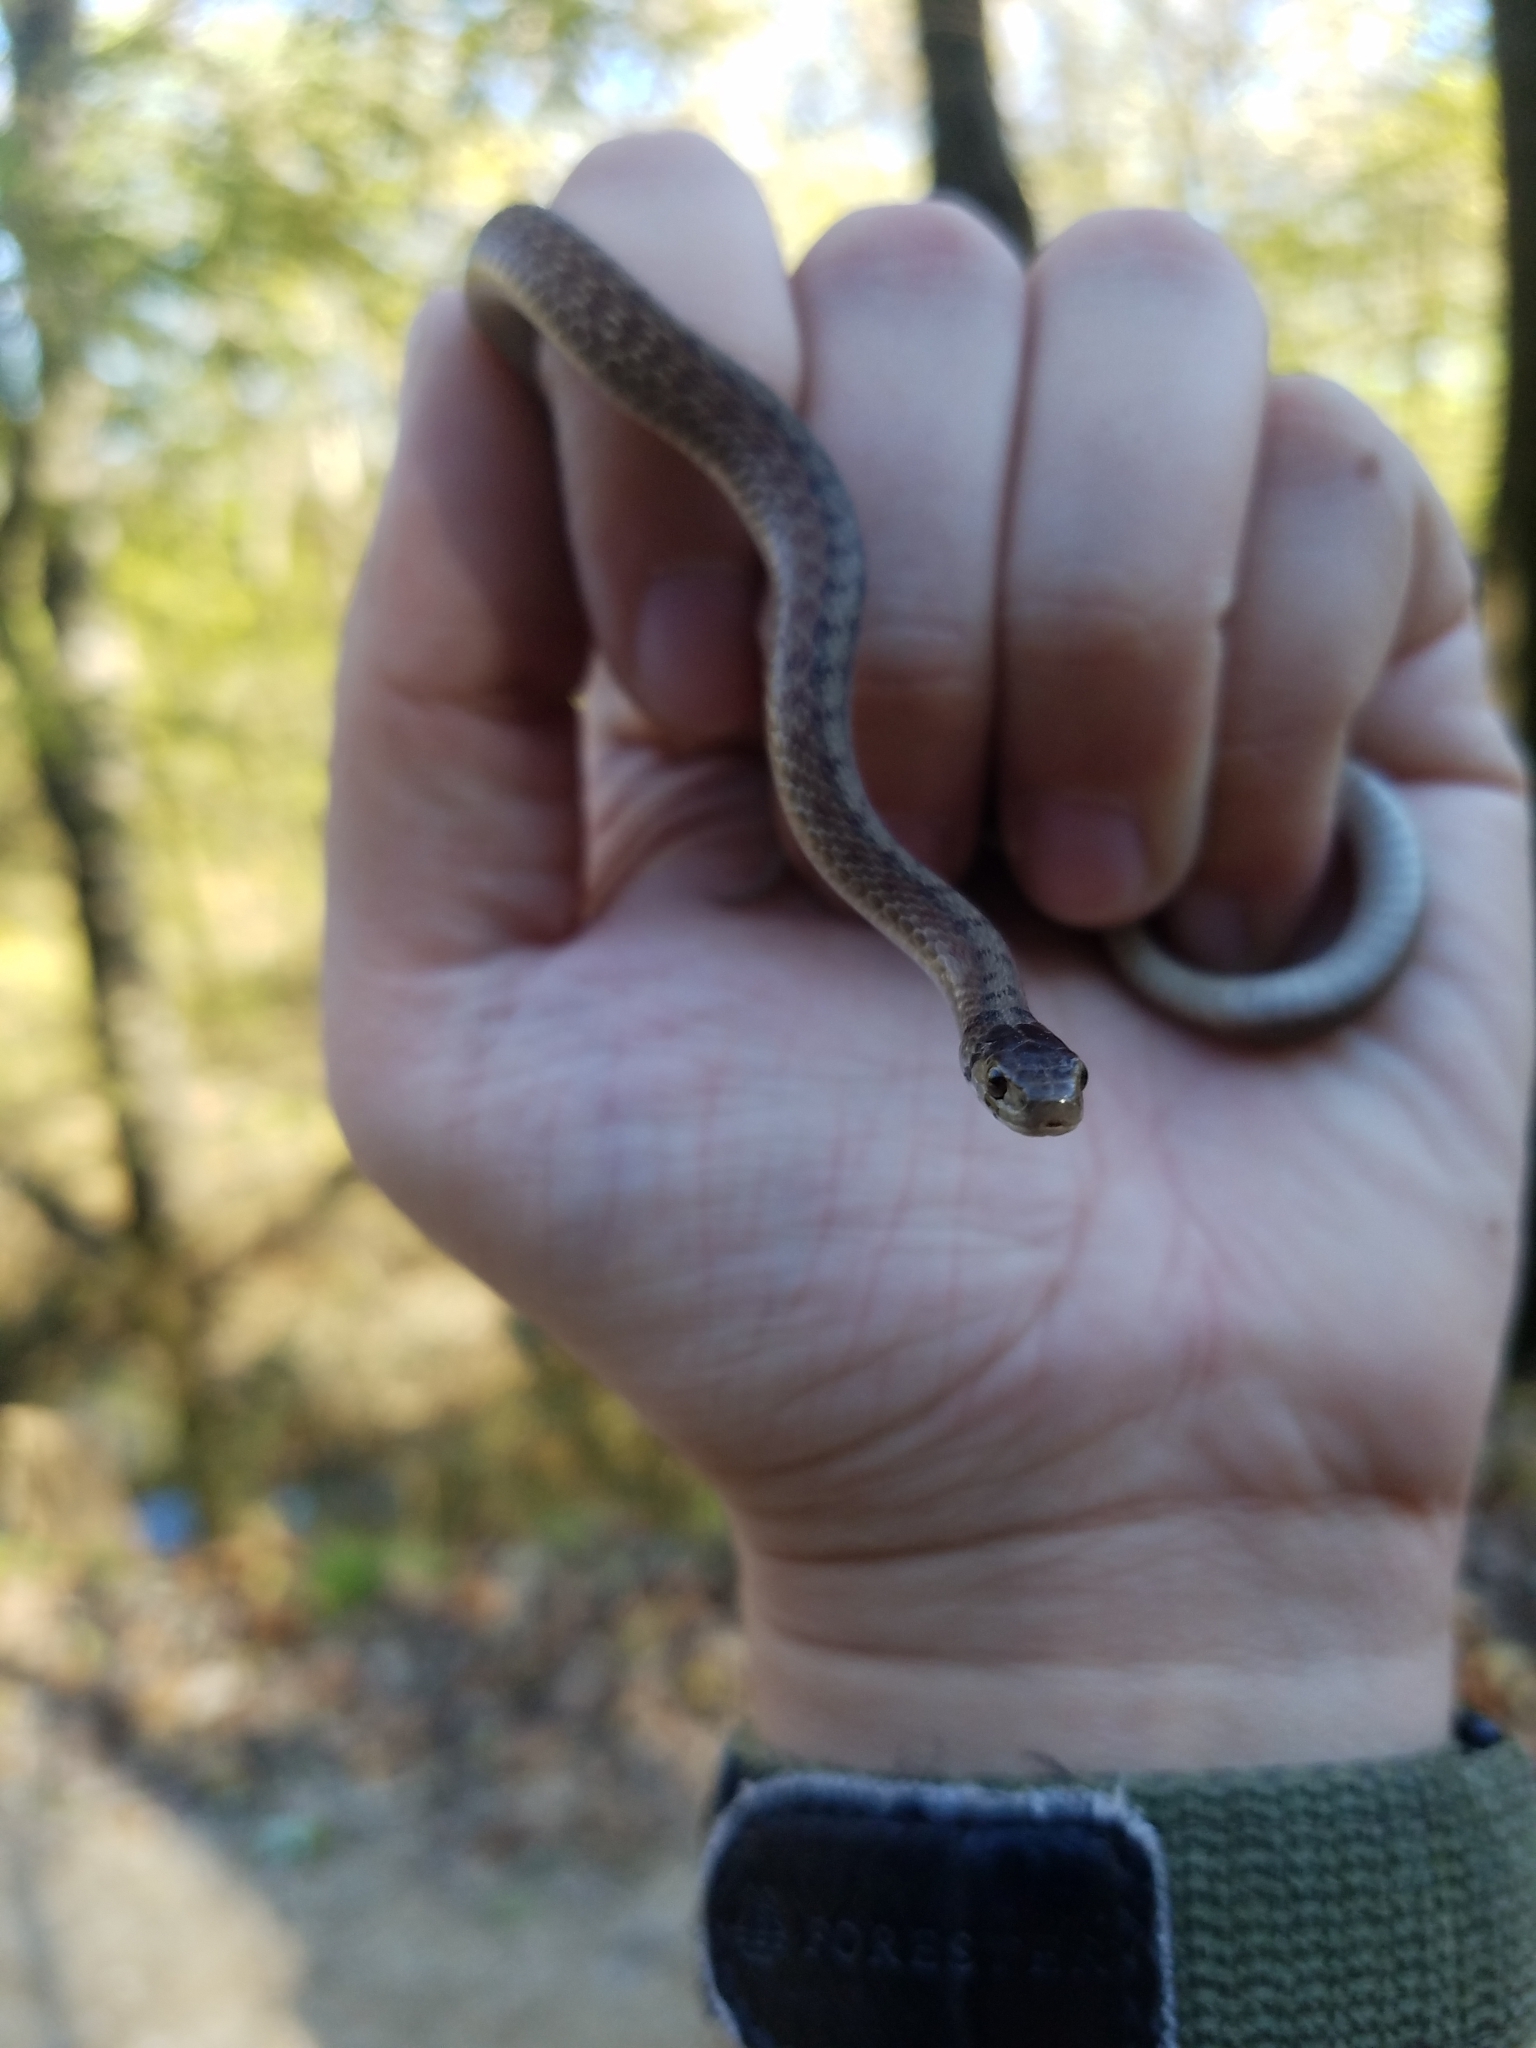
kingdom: Animalia
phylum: Chordata
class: Squamata
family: Colubridae
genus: Storeria
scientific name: Storeria dekayi
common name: (dekay’s) brown snake
